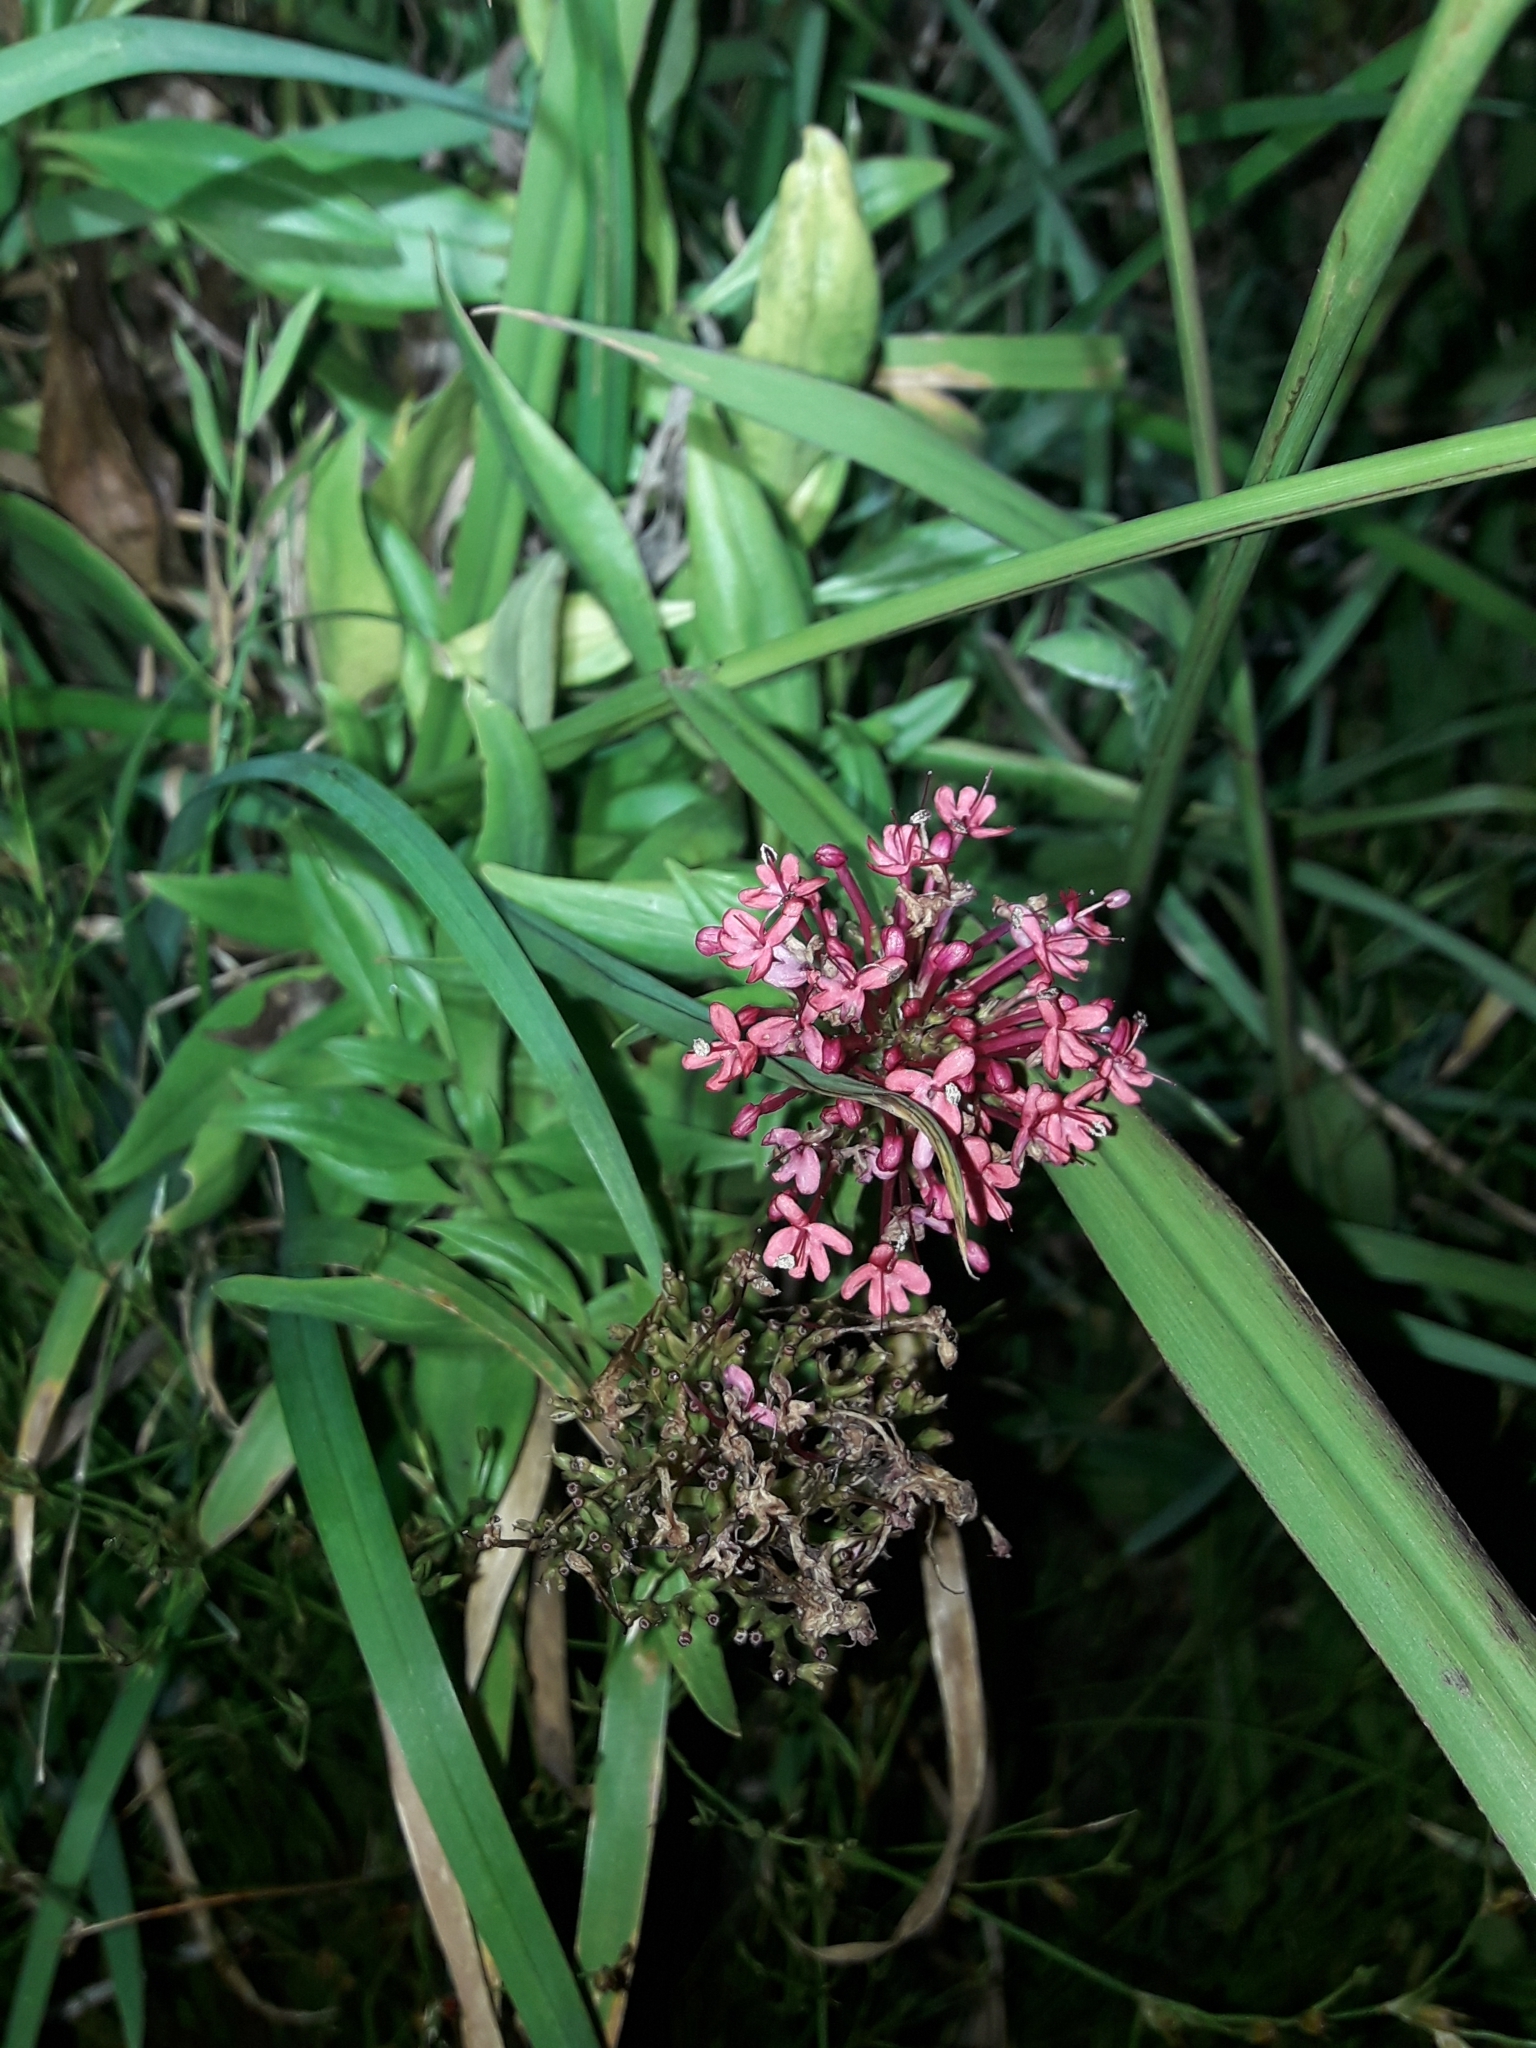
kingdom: Plantae
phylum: Tracheophyta
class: Magnoliopsida
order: Dipsacales
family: Caprifoliaceae
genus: Centranthus
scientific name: Centranthus ruber
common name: Red valerian
